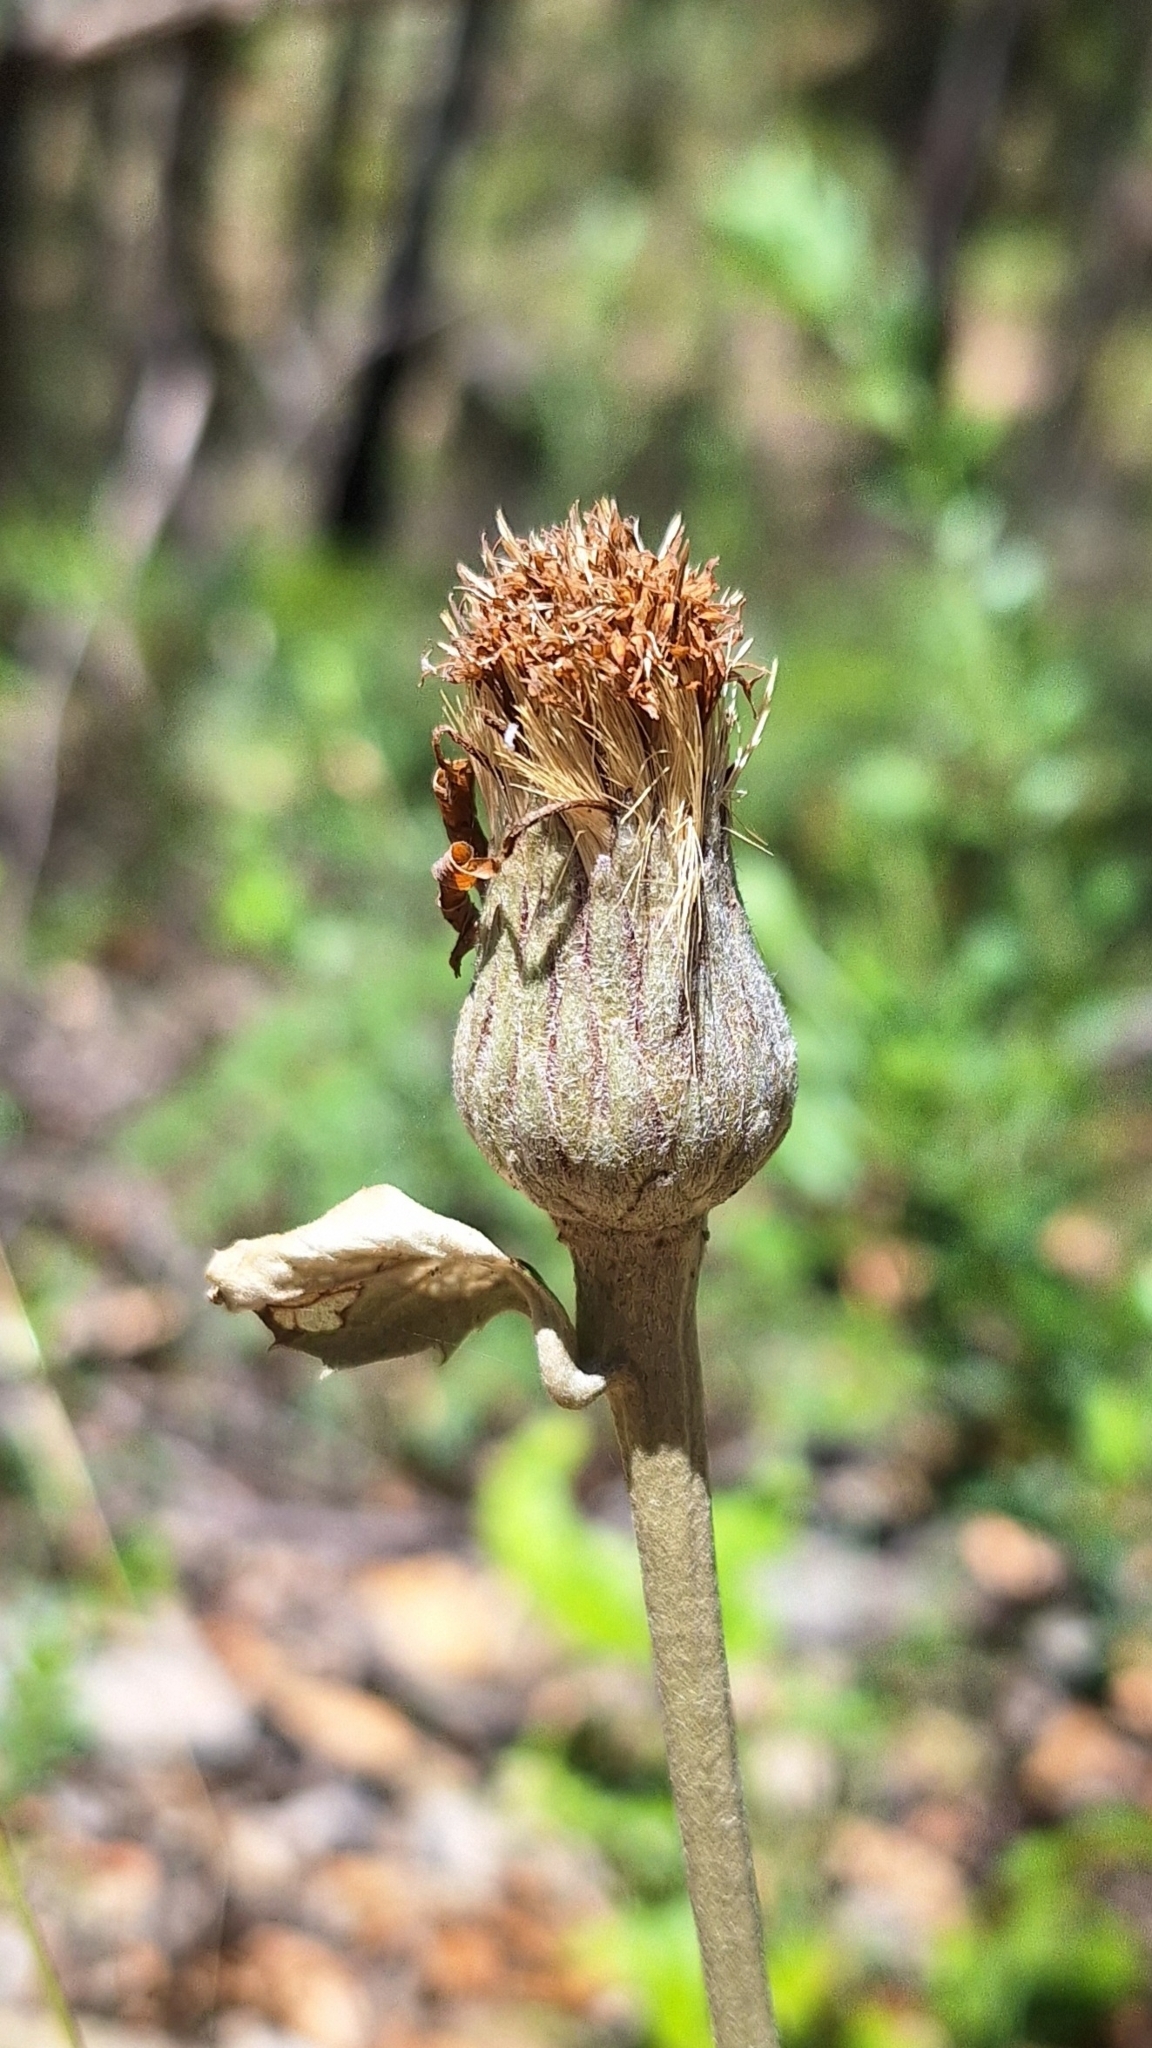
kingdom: Plantae
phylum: Tracheophyta
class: Magnoliopsida
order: Asterales
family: Asteraceae
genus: Olearia
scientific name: Olearia grandiflora
